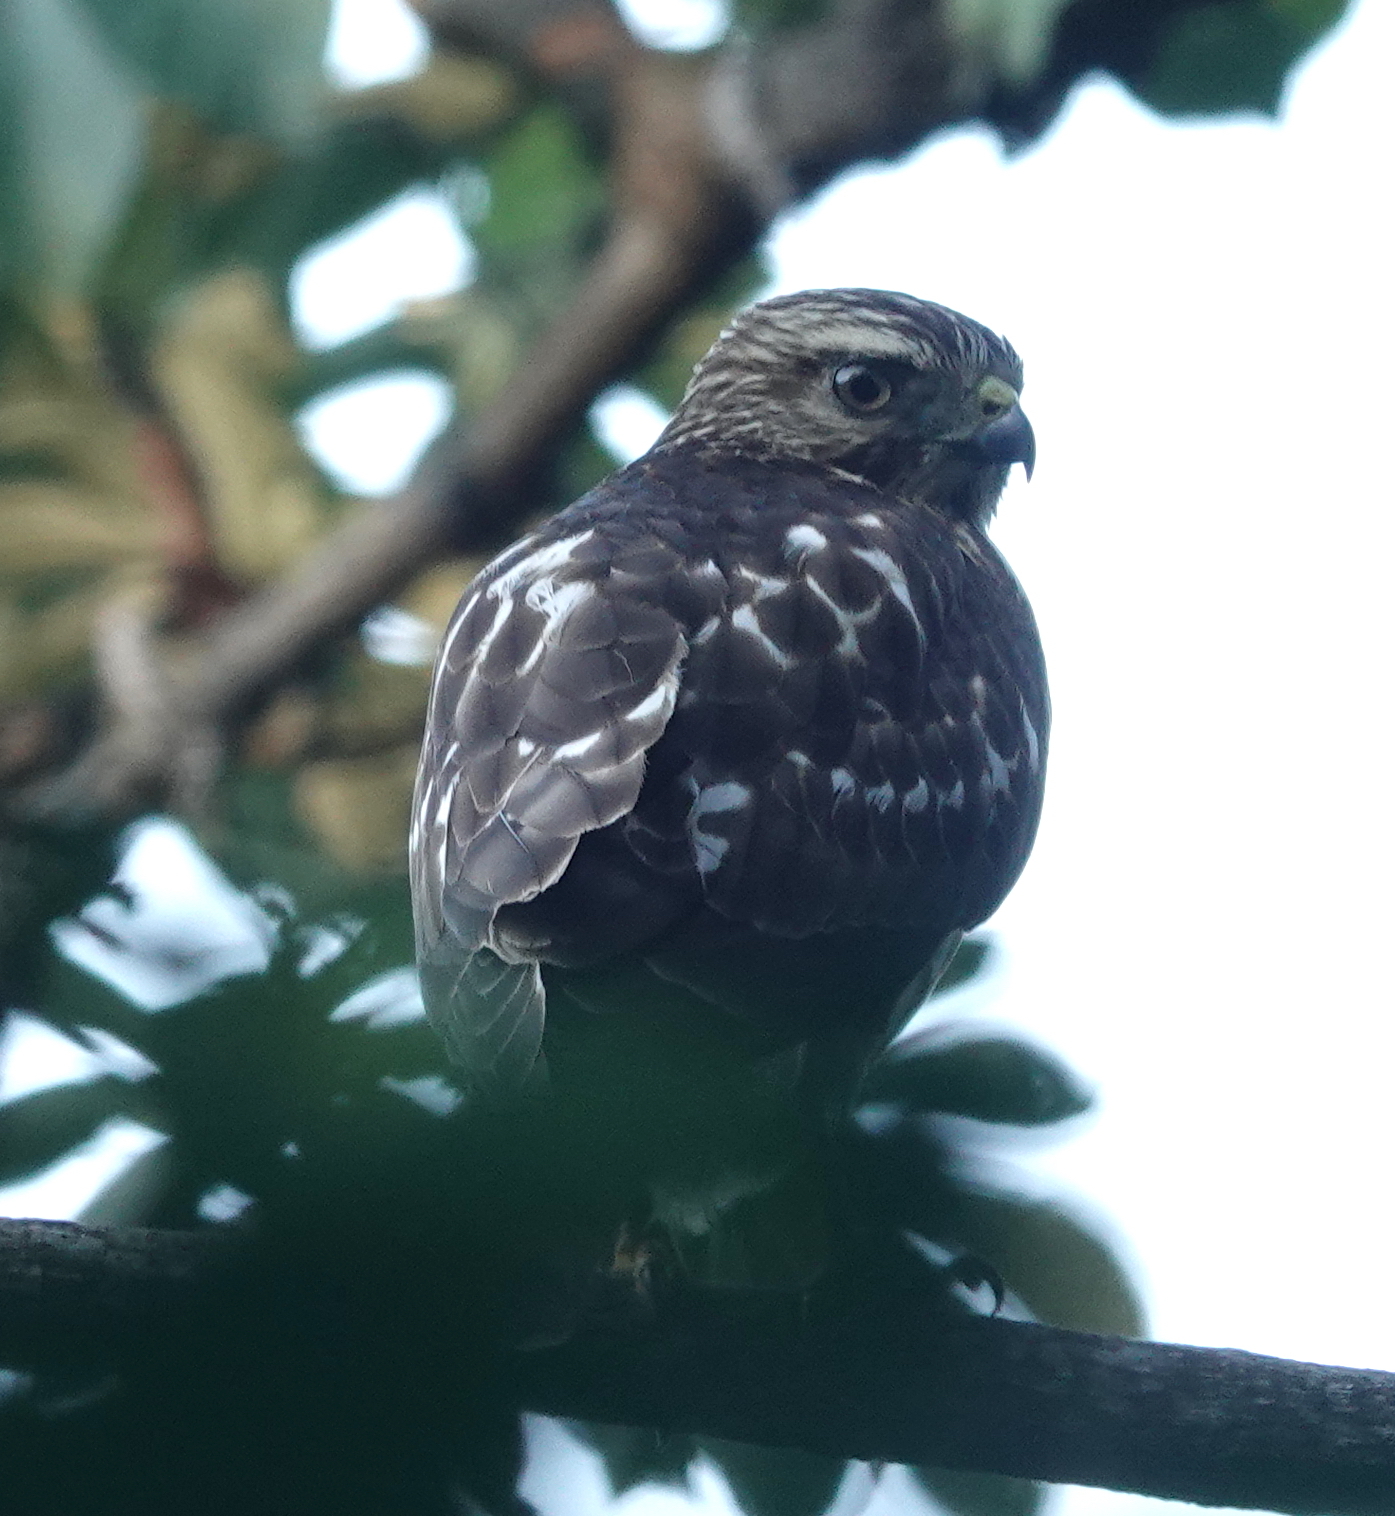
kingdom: Animalia
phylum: Chordata
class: Aves
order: Accipitriformes
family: Accipitridae
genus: Buteo
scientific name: Buteo platypterus
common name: Broad-winged hawk
